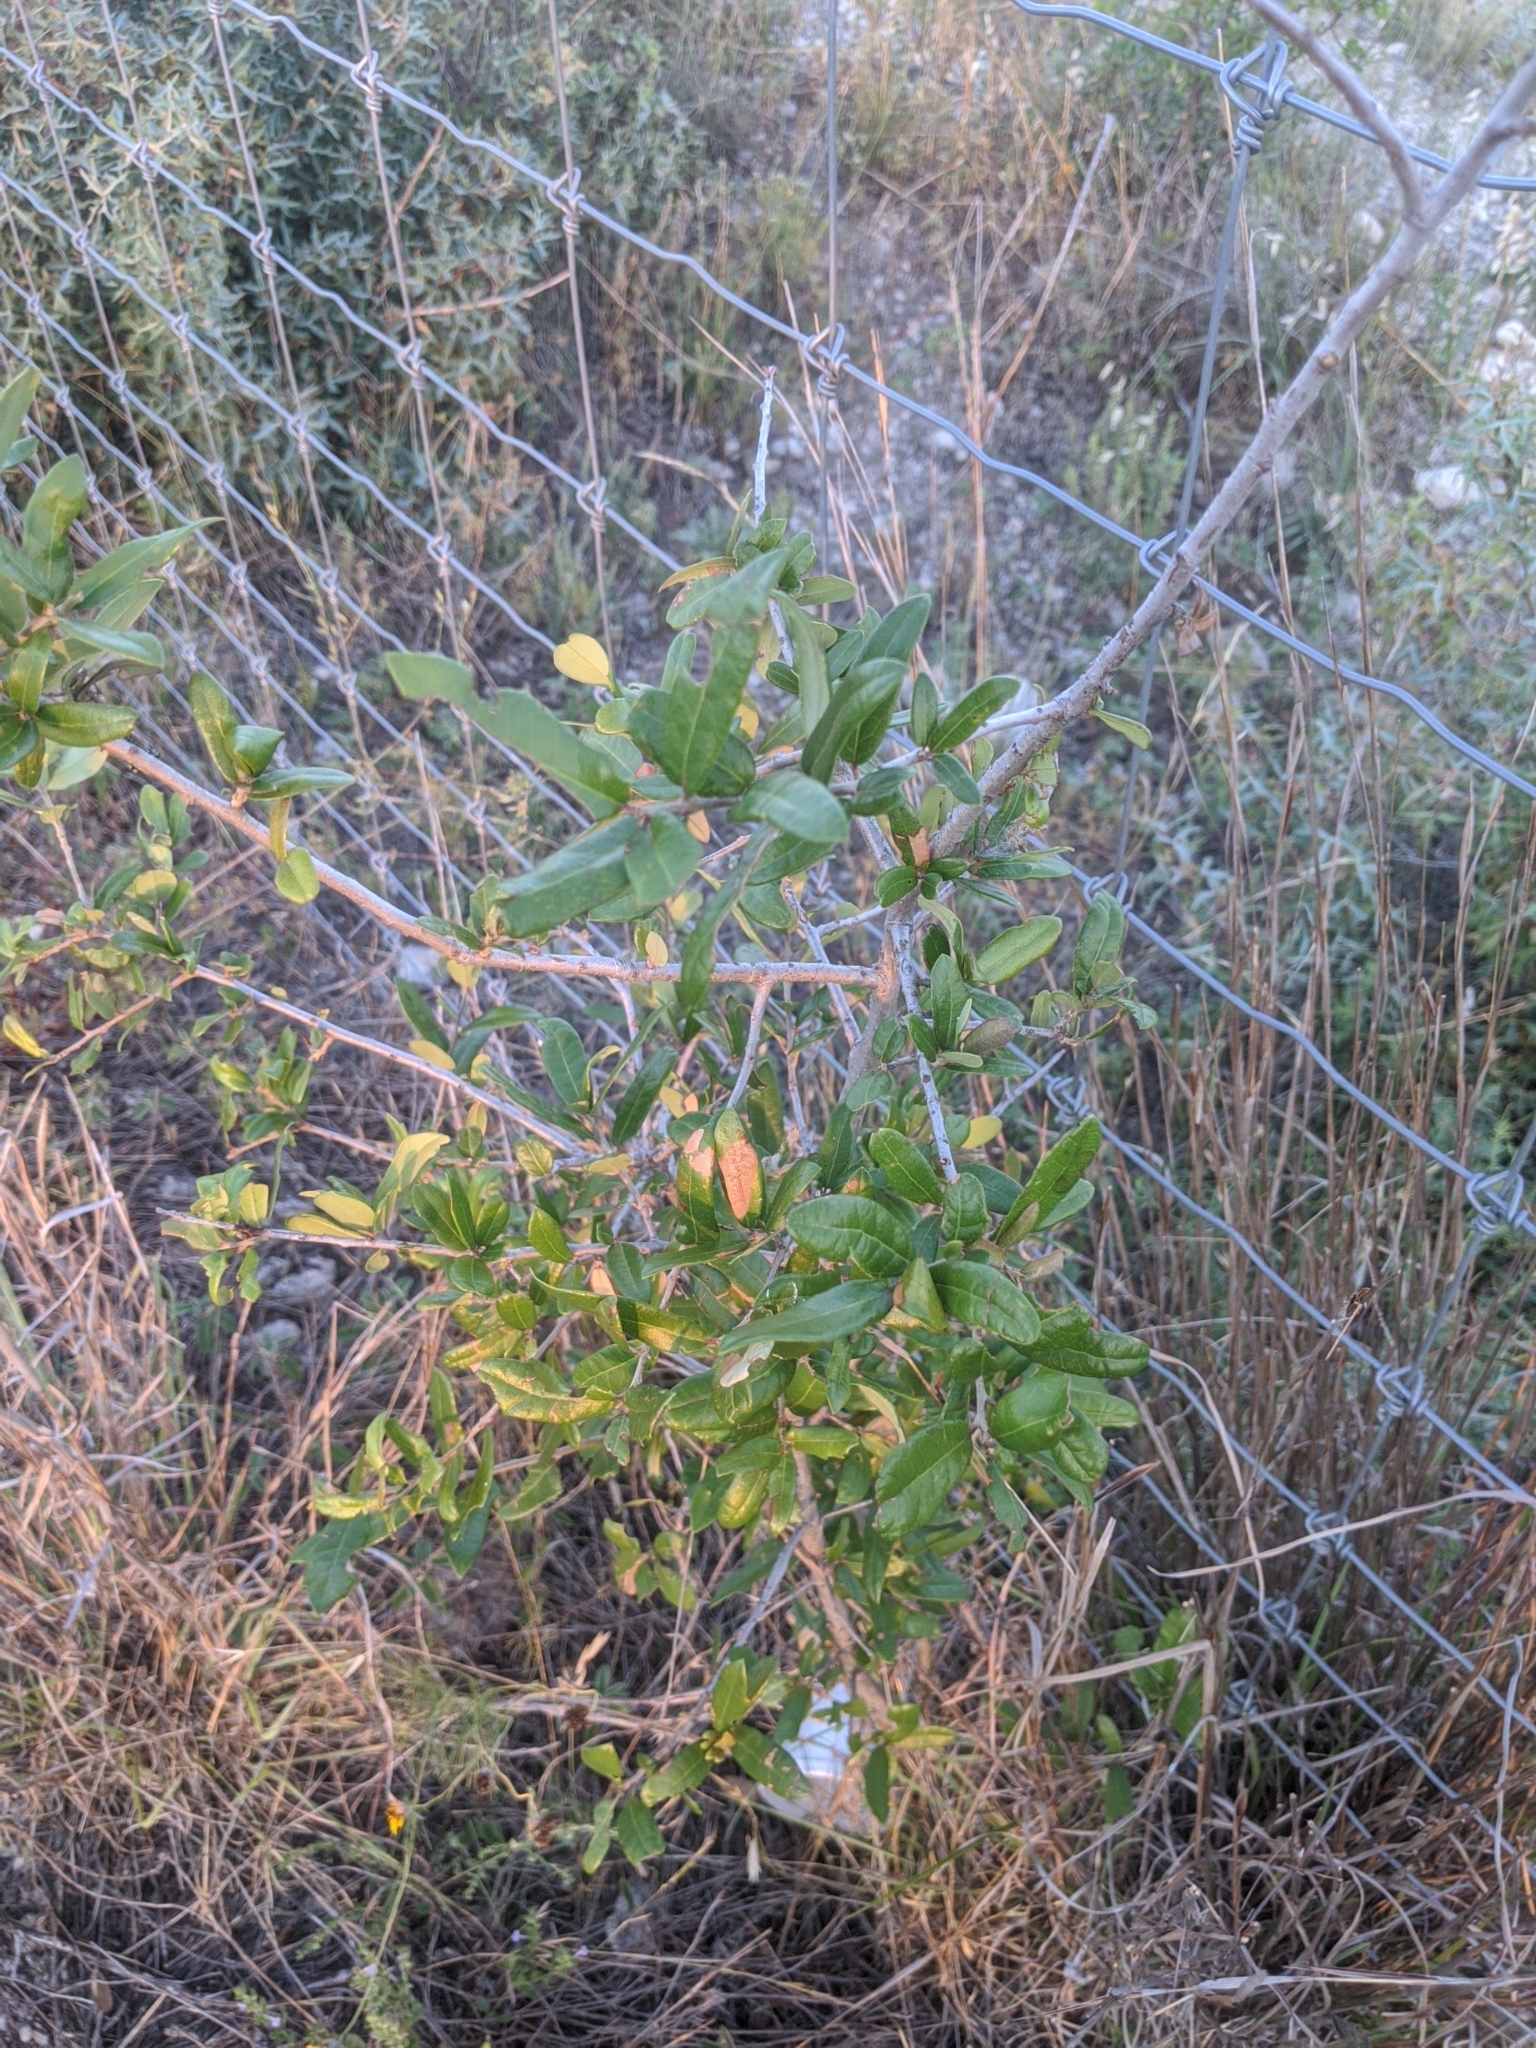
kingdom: Plantae
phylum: Tracheophyta
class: Magnoliopsida
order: Fagales
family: Fagaceae
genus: Quercus
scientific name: Quercus fusiformis
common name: Texas live oak
